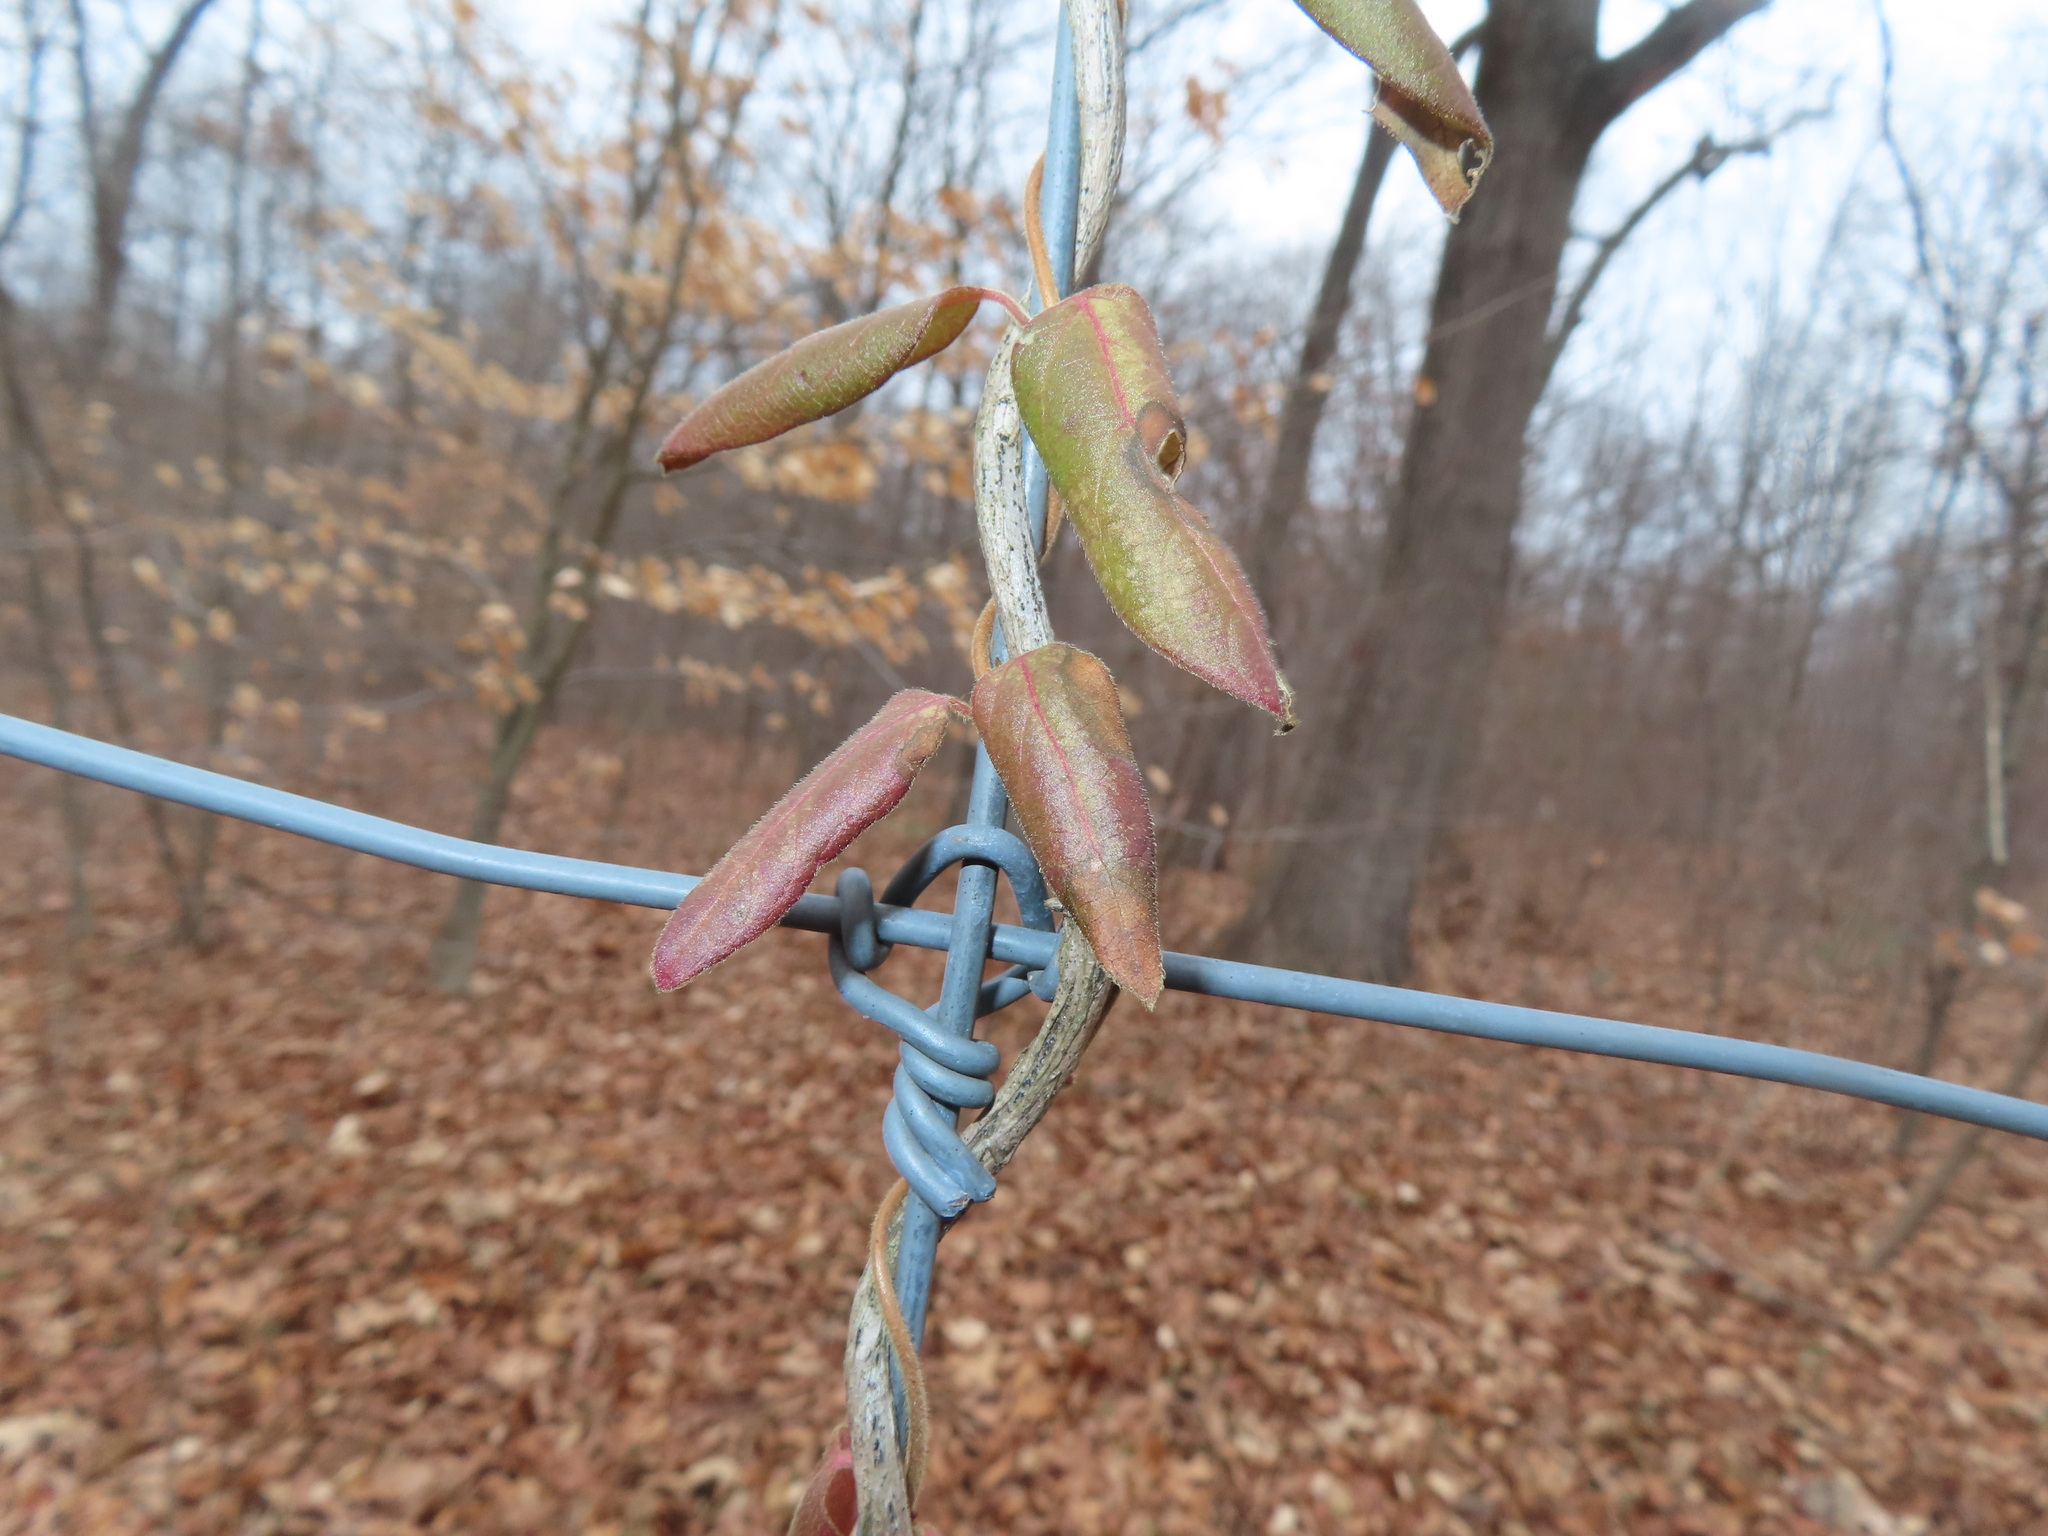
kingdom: Plantae
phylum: Tracheophyta
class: Magnoliopsida
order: Dipsacales
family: Caprifoliaceae
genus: Lonicera
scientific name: Lonicera japonica
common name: Japanese honeysuckle
